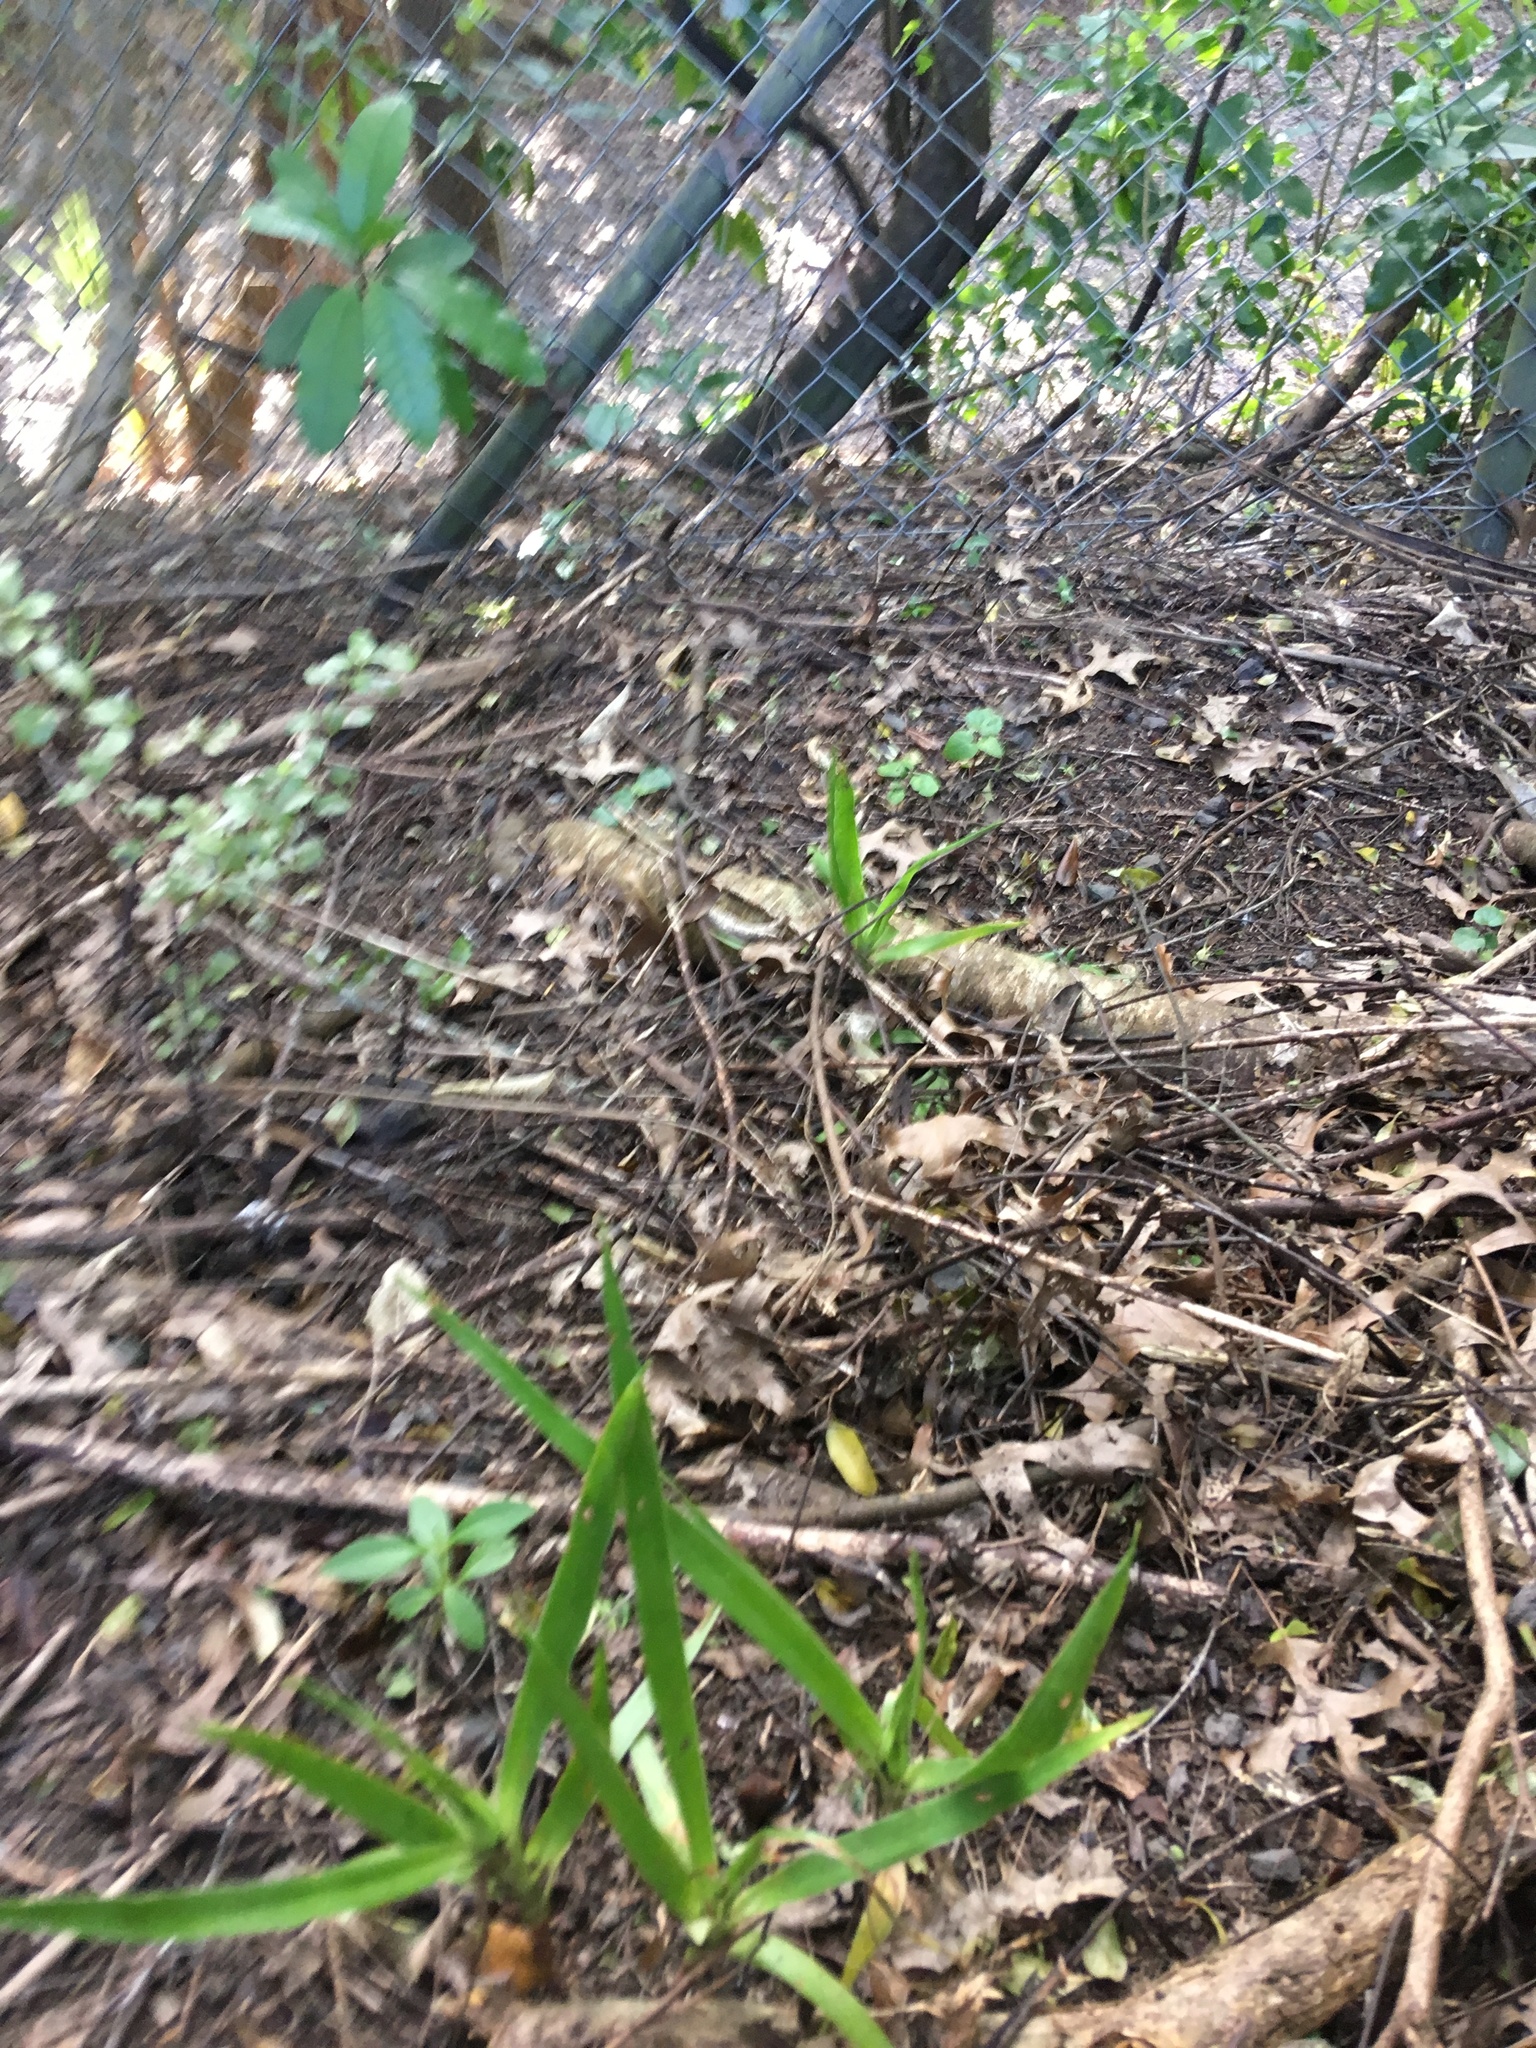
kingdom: Plantae
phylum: Tracheophyta
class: Liliopsida
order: Asparagales
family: Asparagaceae
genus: Dracaena
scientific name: Dracaena draco
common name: Canary island dragon tree
